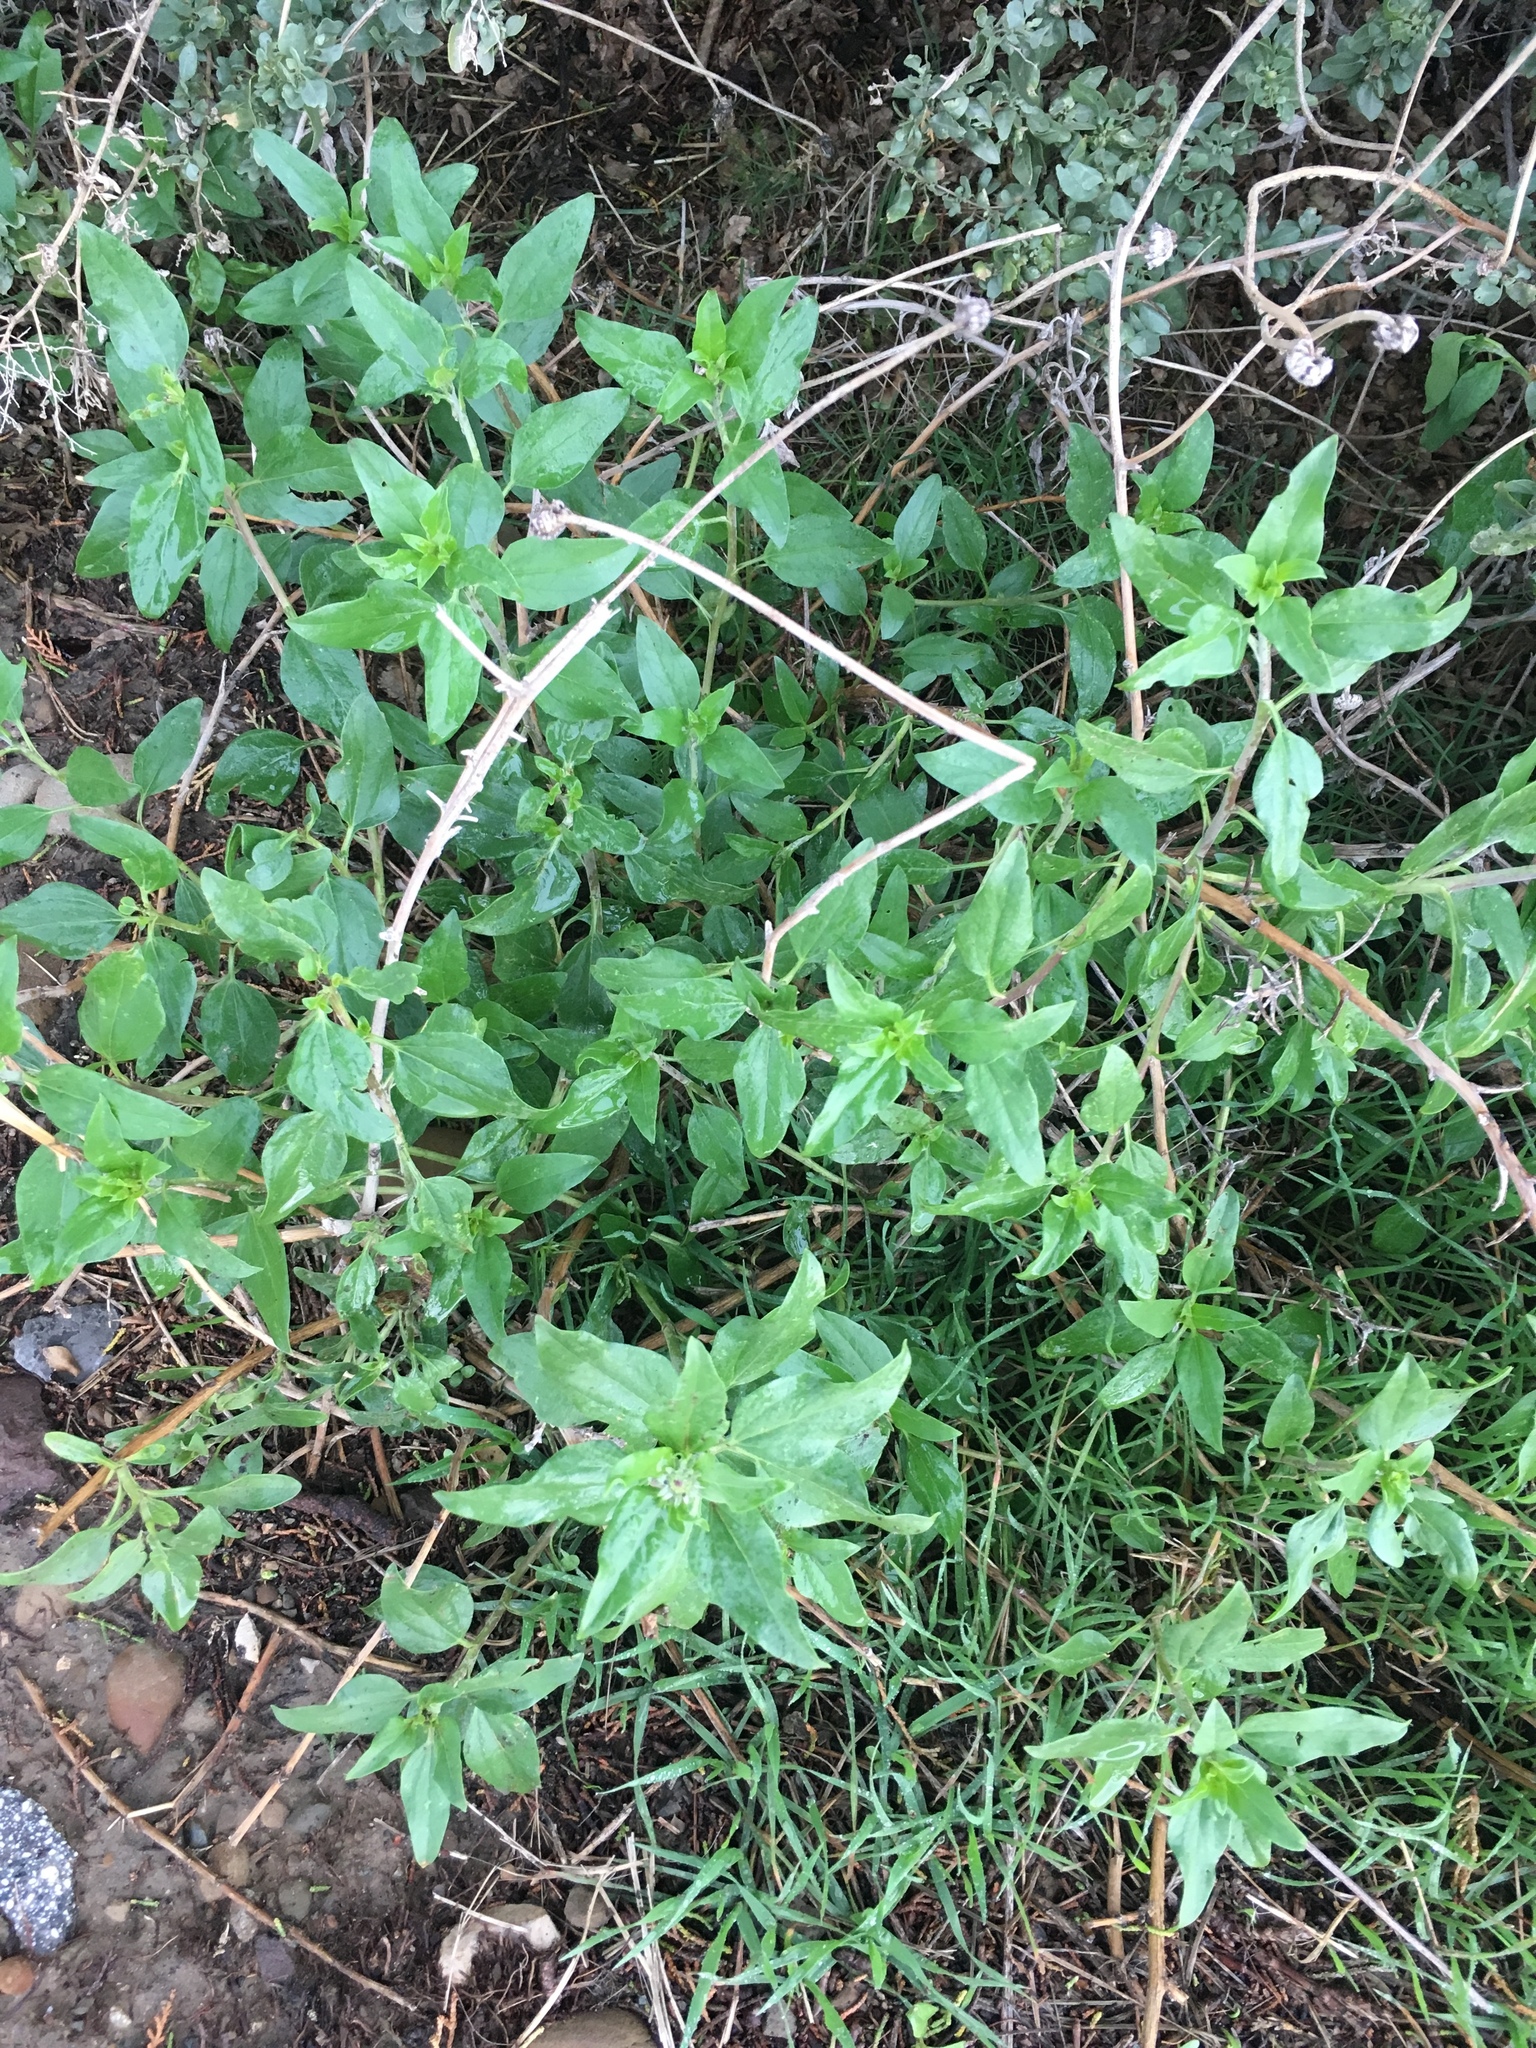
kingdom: Plantae
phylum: Tracheophyta
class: Magnoliopsida
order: Asterales
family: Asteraceae
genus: Encelia
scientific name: Encelia californica
